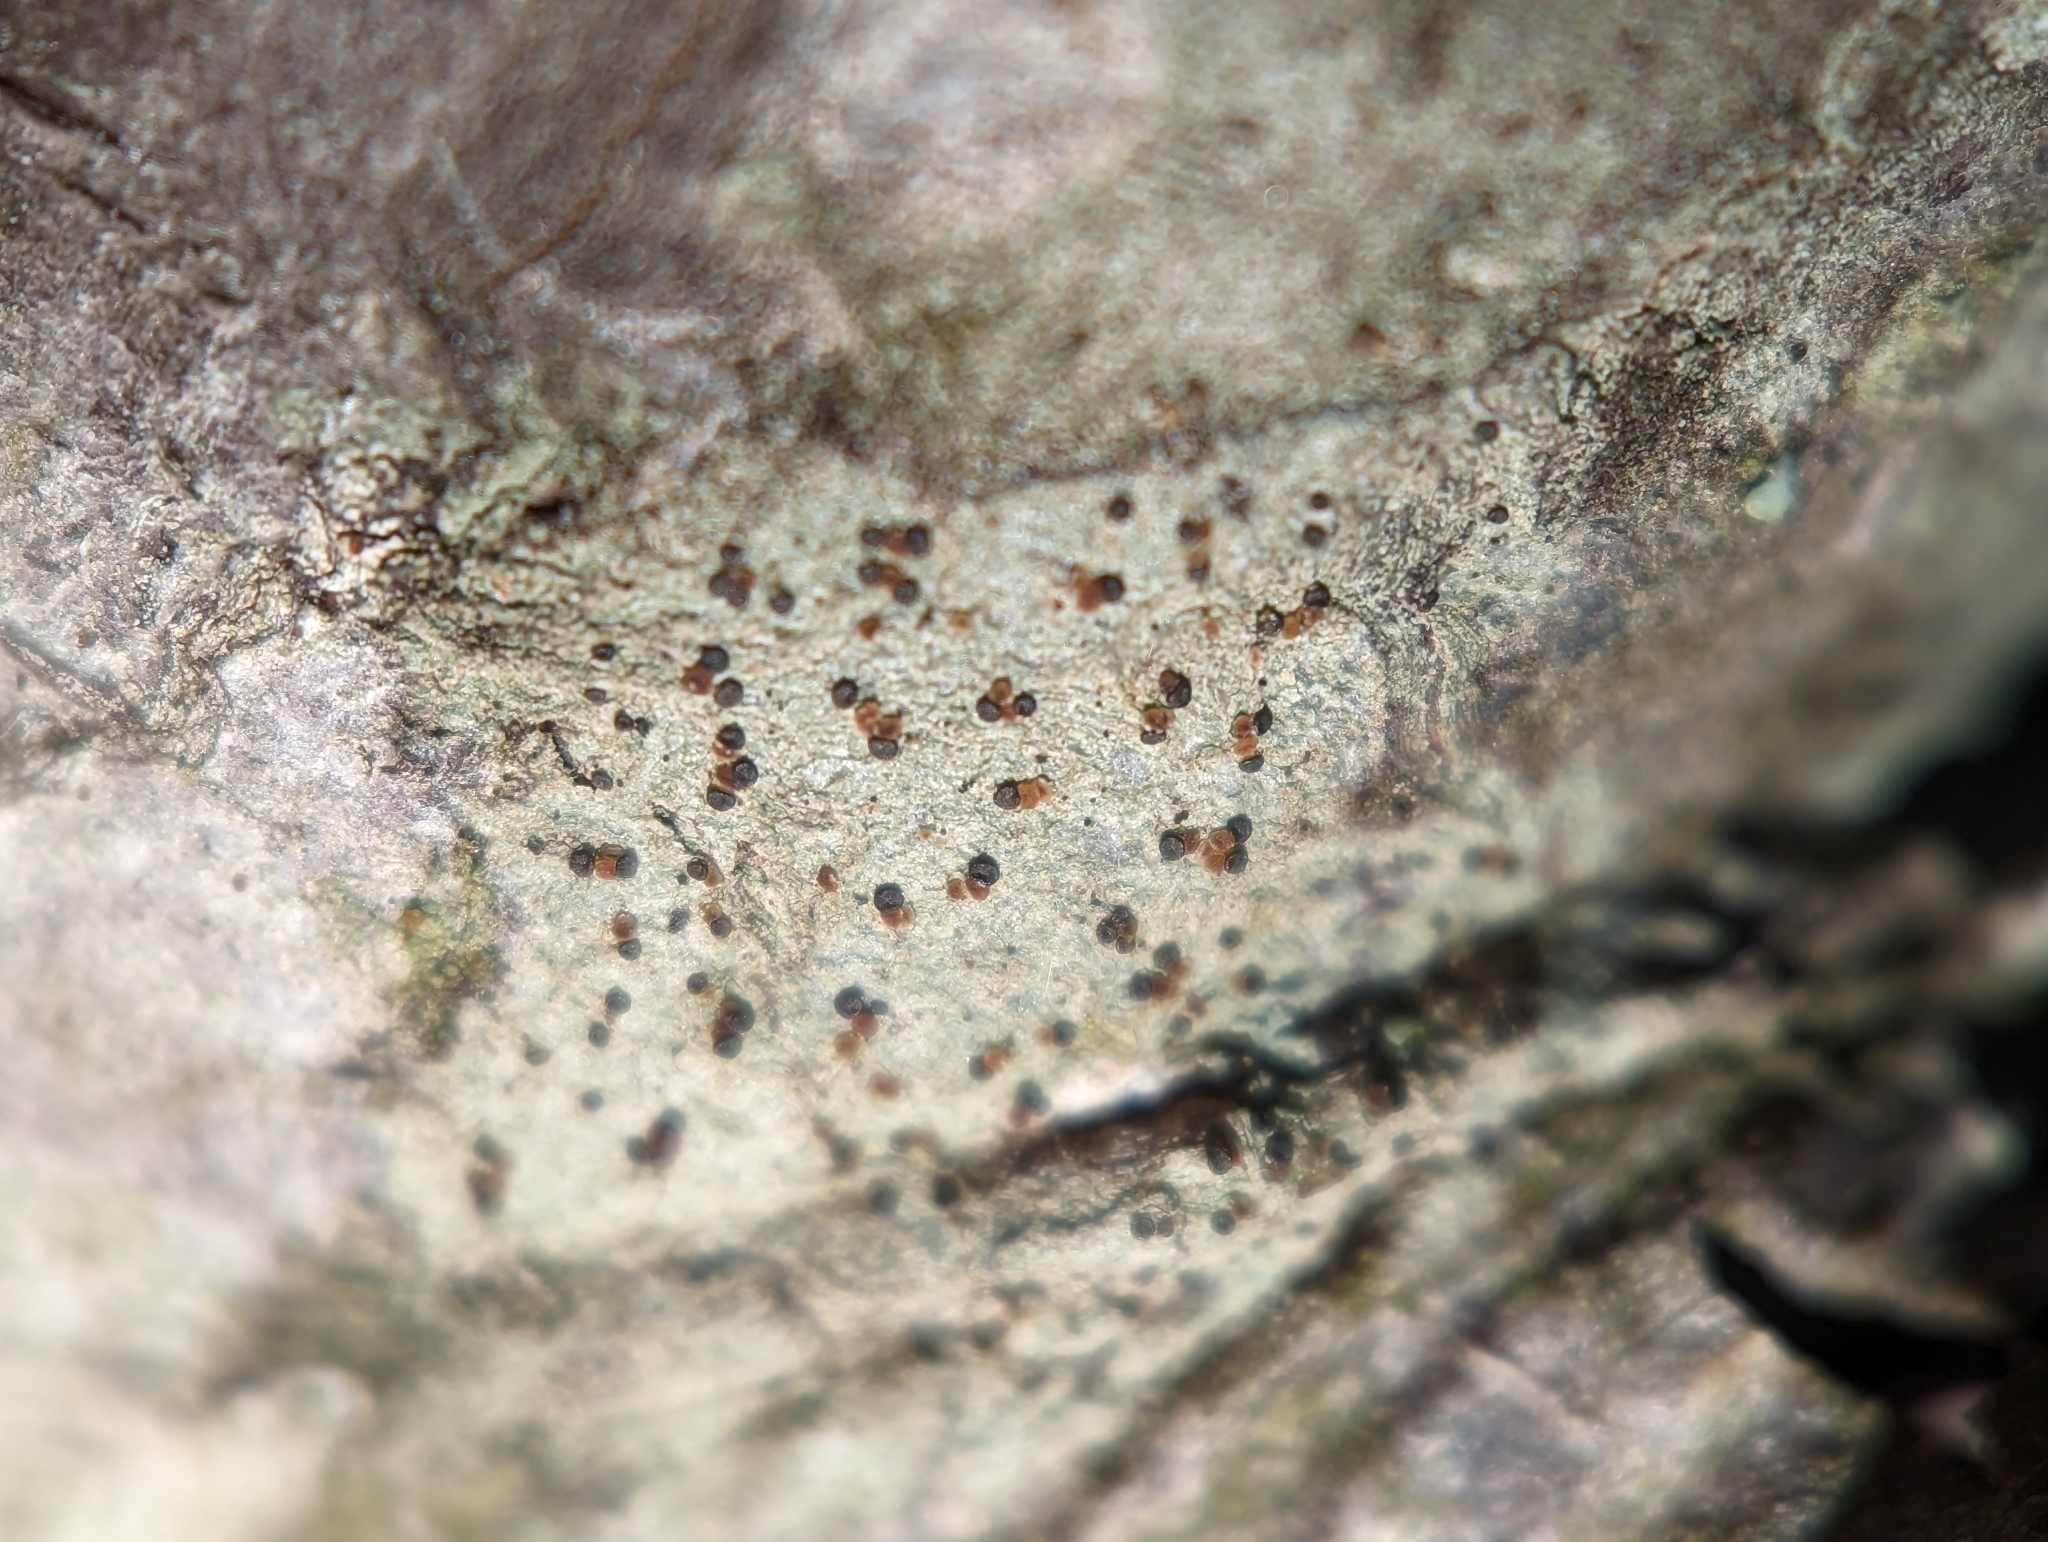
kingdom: Fungi
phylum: Ascomycota
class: Lecanoromycetes
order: Lecanorales
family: Lecanoraceae
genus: Traponora
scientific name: Traponora varians
